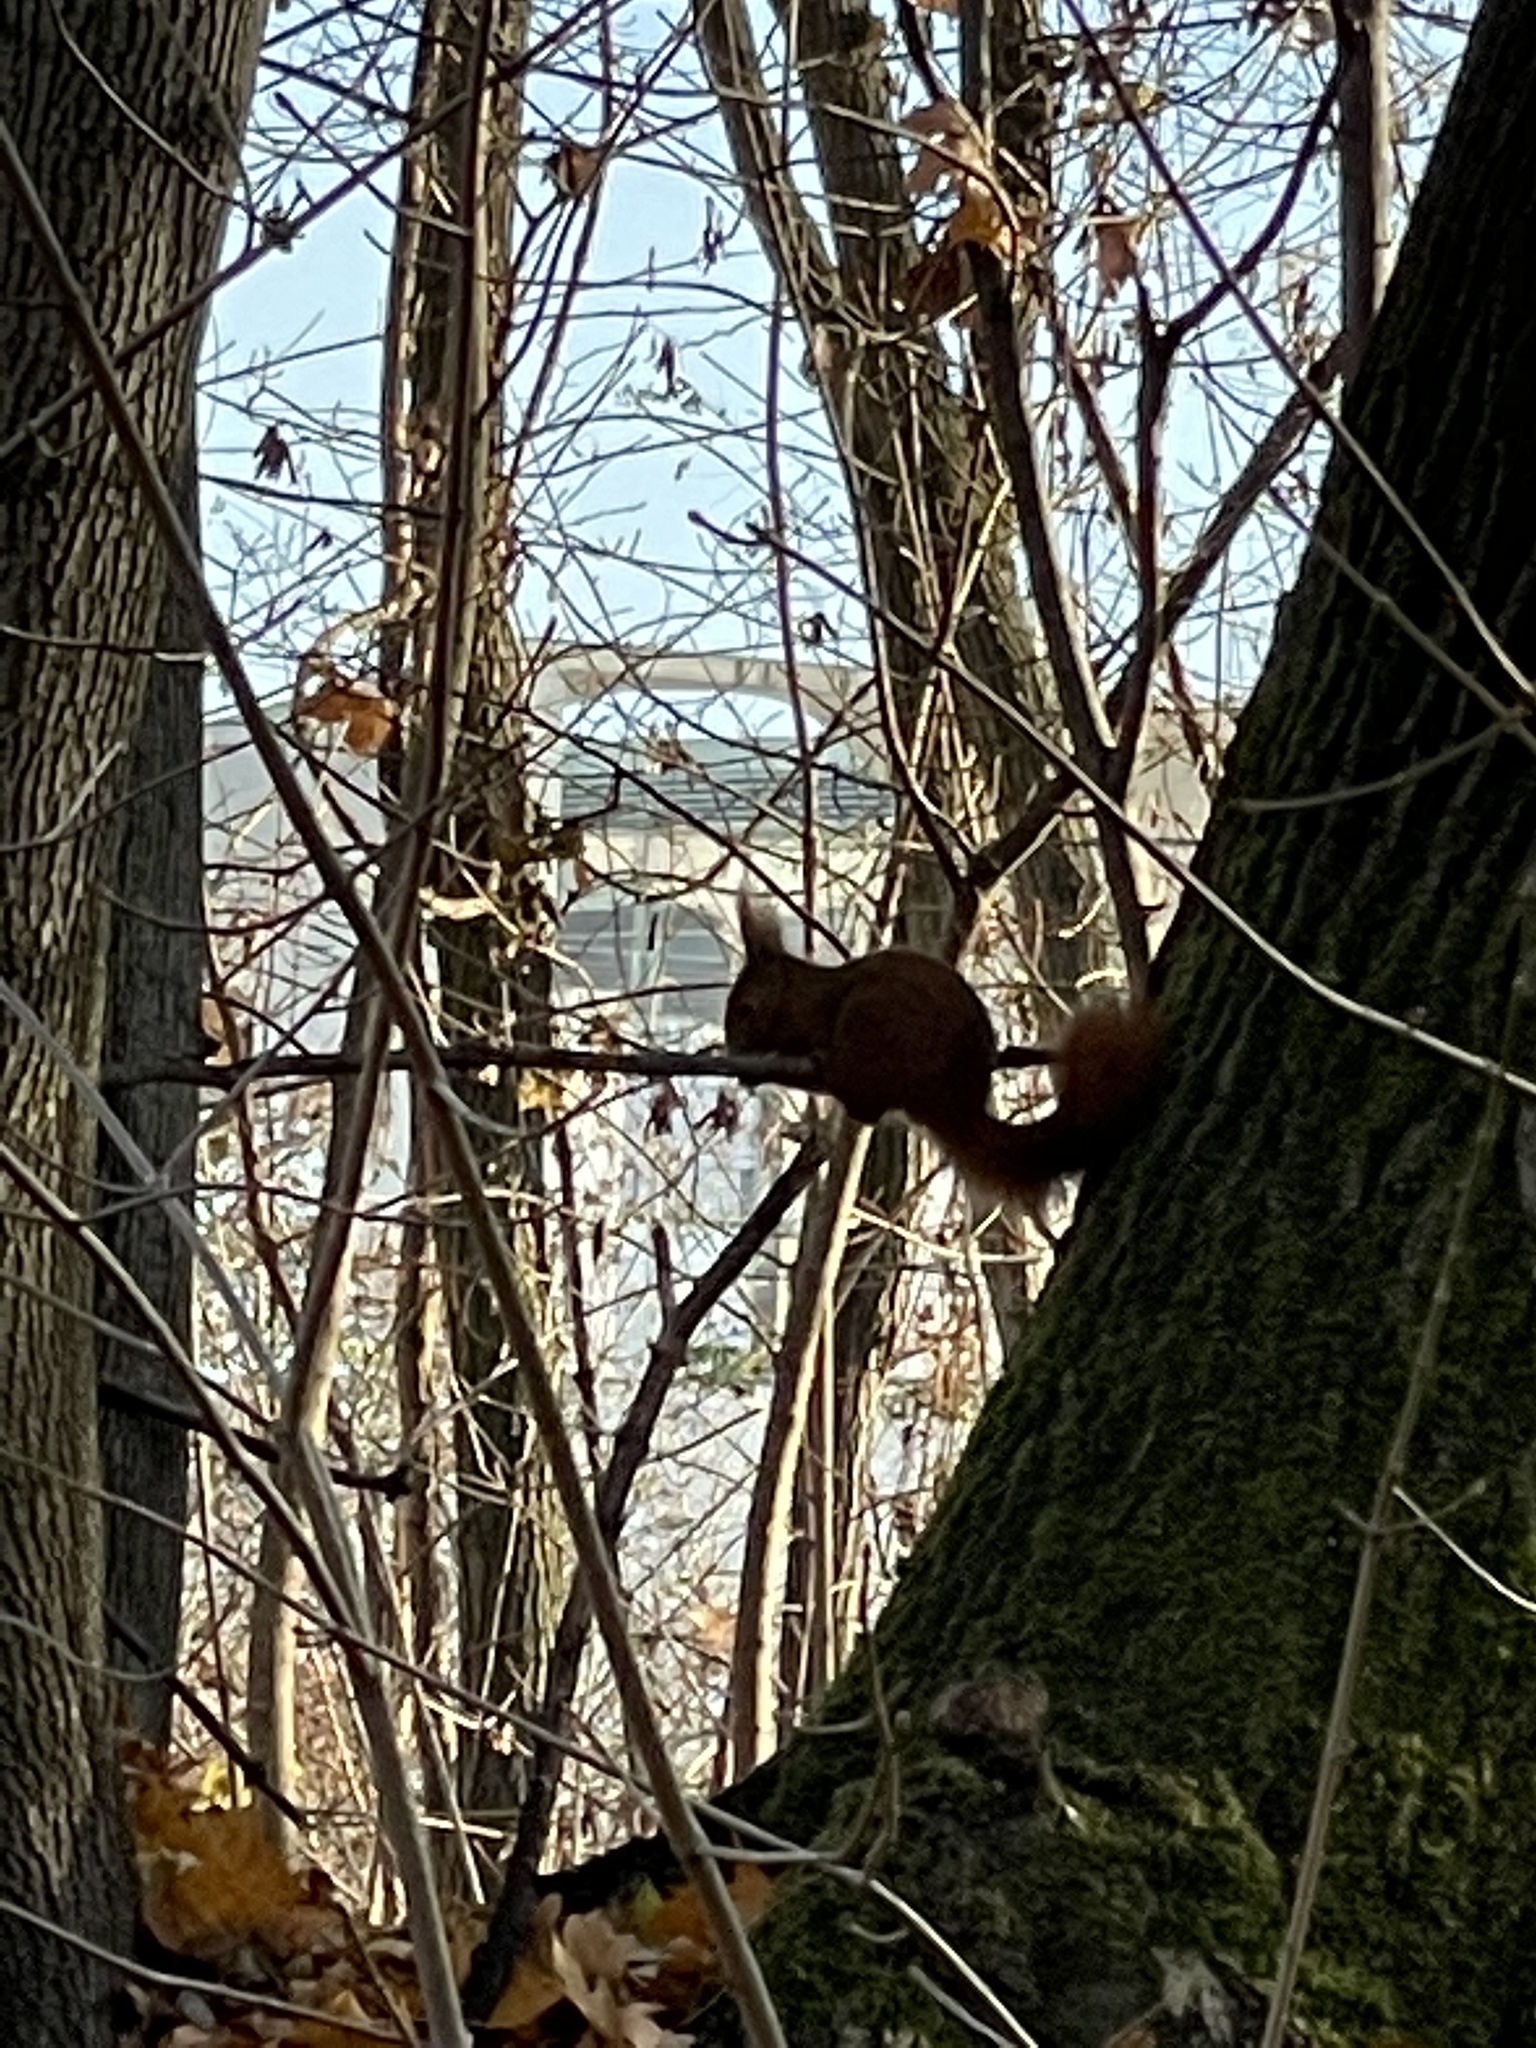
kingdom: Animalia
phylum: Chordata
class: Mammalia
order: Rodentia
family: Sciuridae
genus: Sciurus
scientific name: Sciurus vulgaris
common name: Eurasian red squirrel
